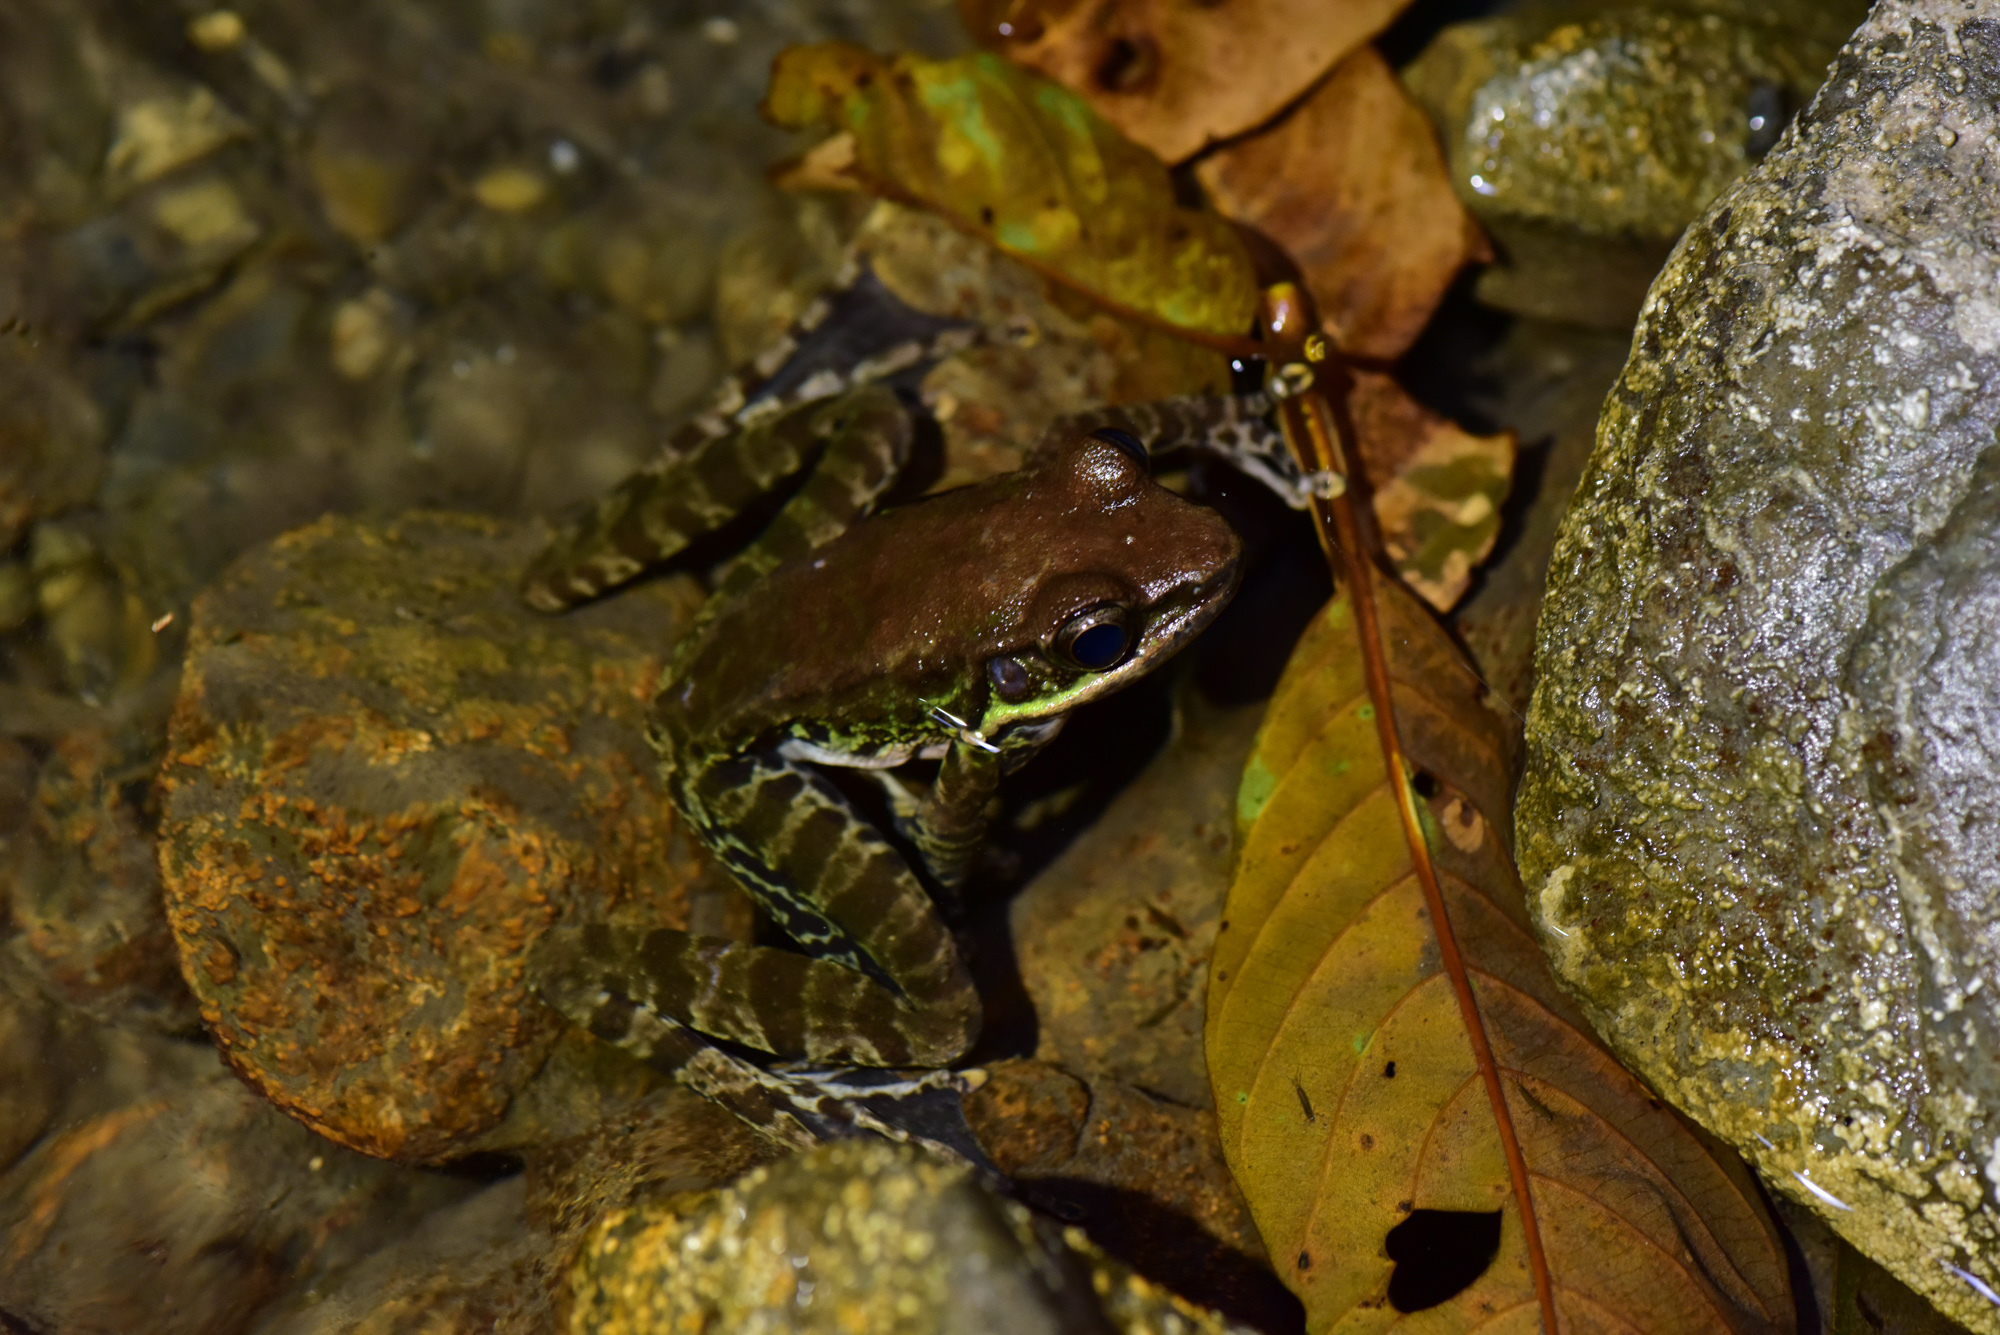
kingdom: Animalia
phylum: Chordata
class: Amphibia
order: Anura
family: Ranidae
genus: Odorrana
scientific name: Odorrana swinhoana
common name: Bangkimtsing frog
